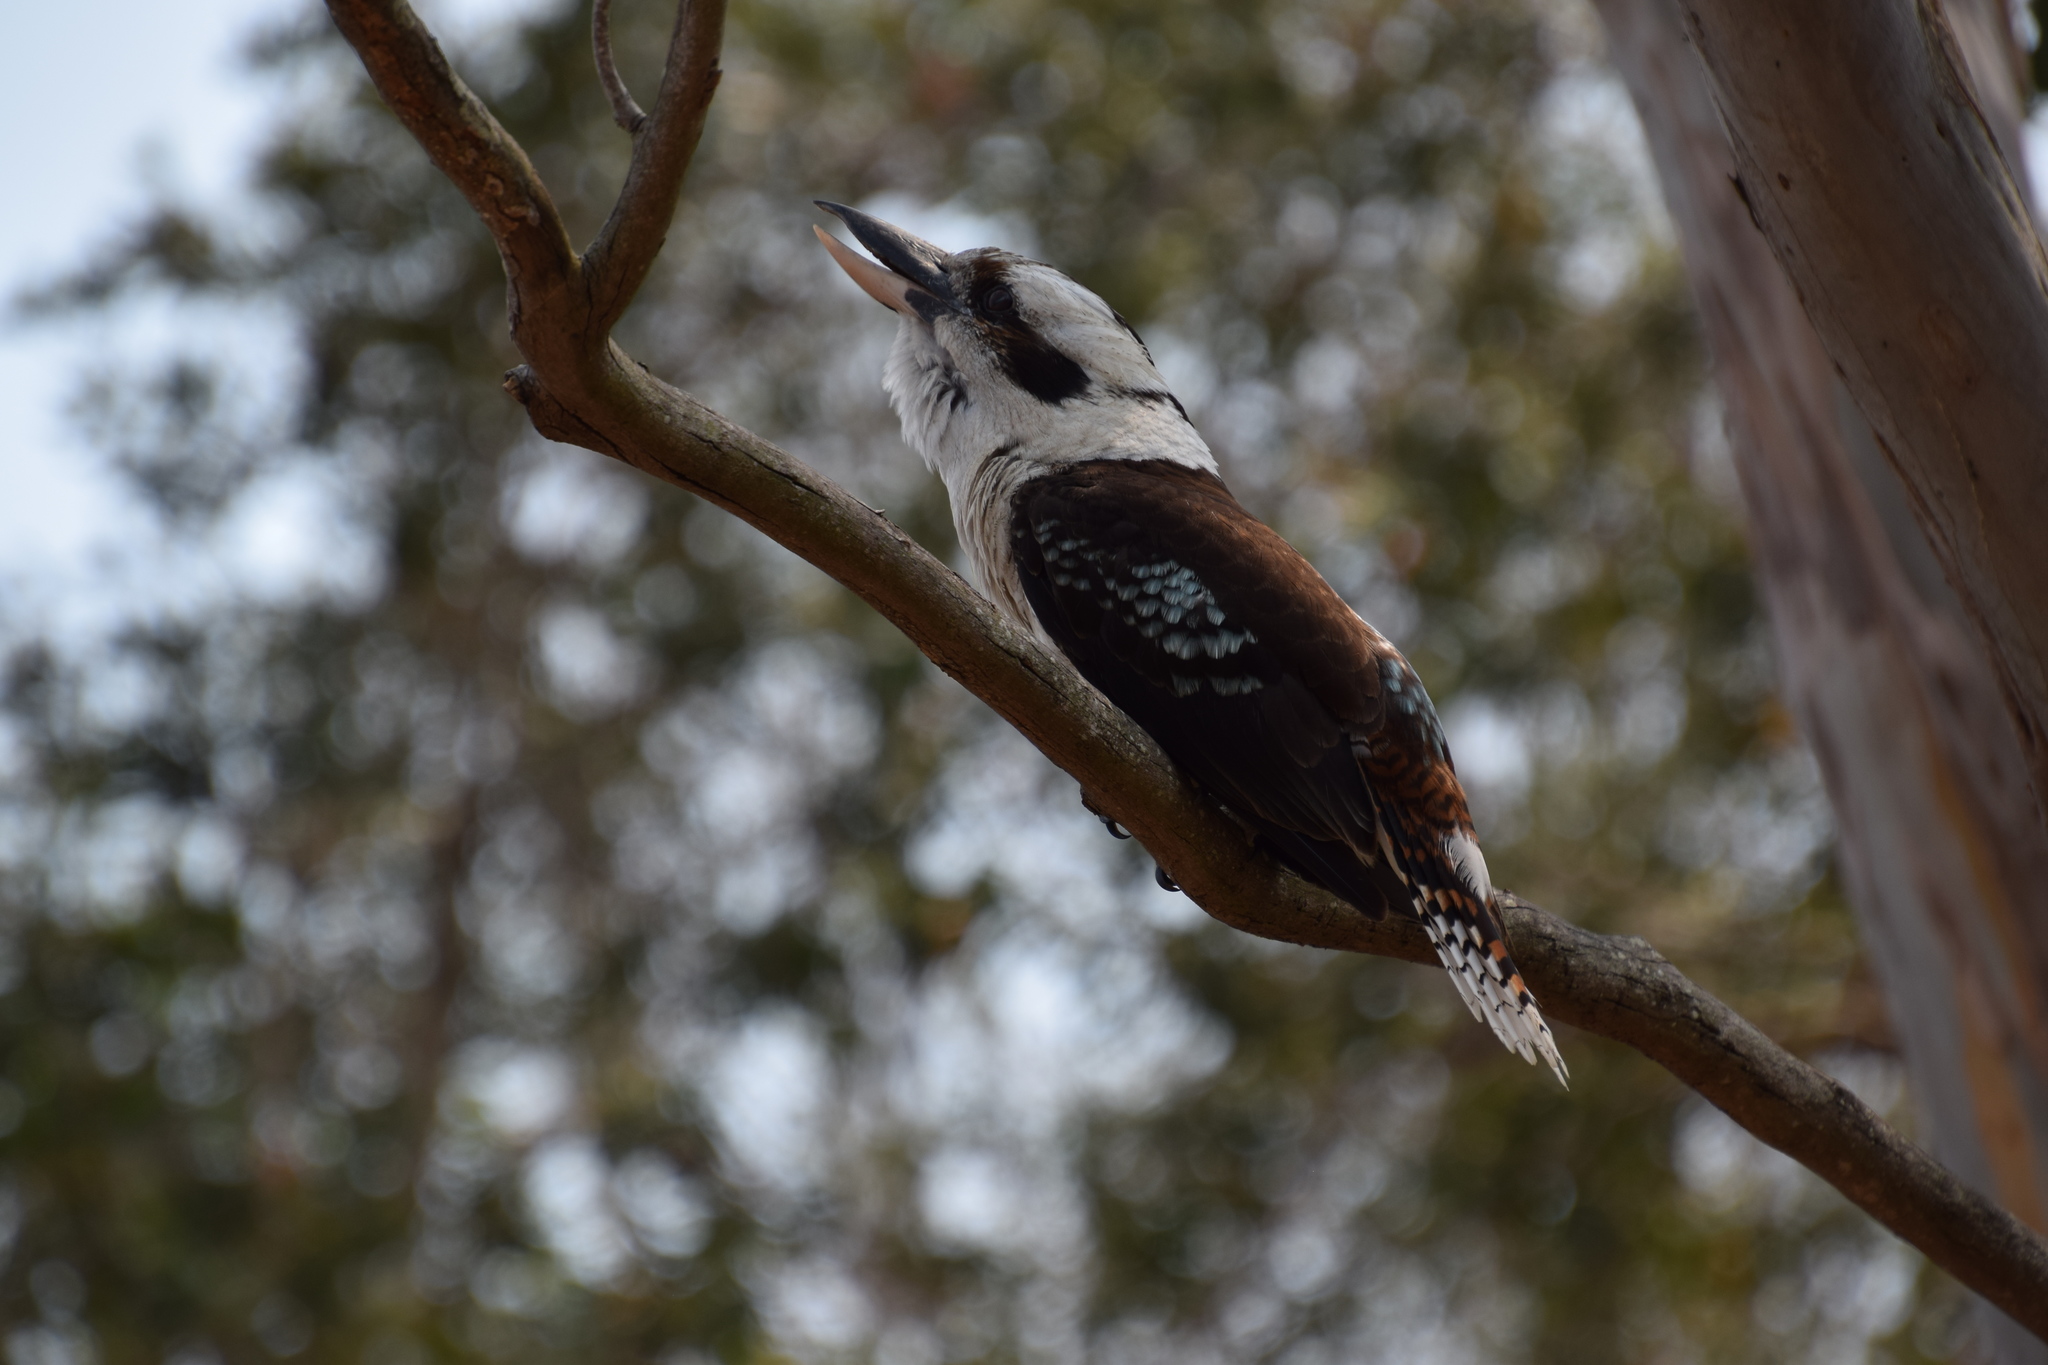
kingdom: Animalia
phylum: Chordata
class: Aves
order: Coraciiformes
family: Alcedinidae
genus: Dacelo
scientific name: Dacelo novaeguineae
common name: Laughing kookaburra
